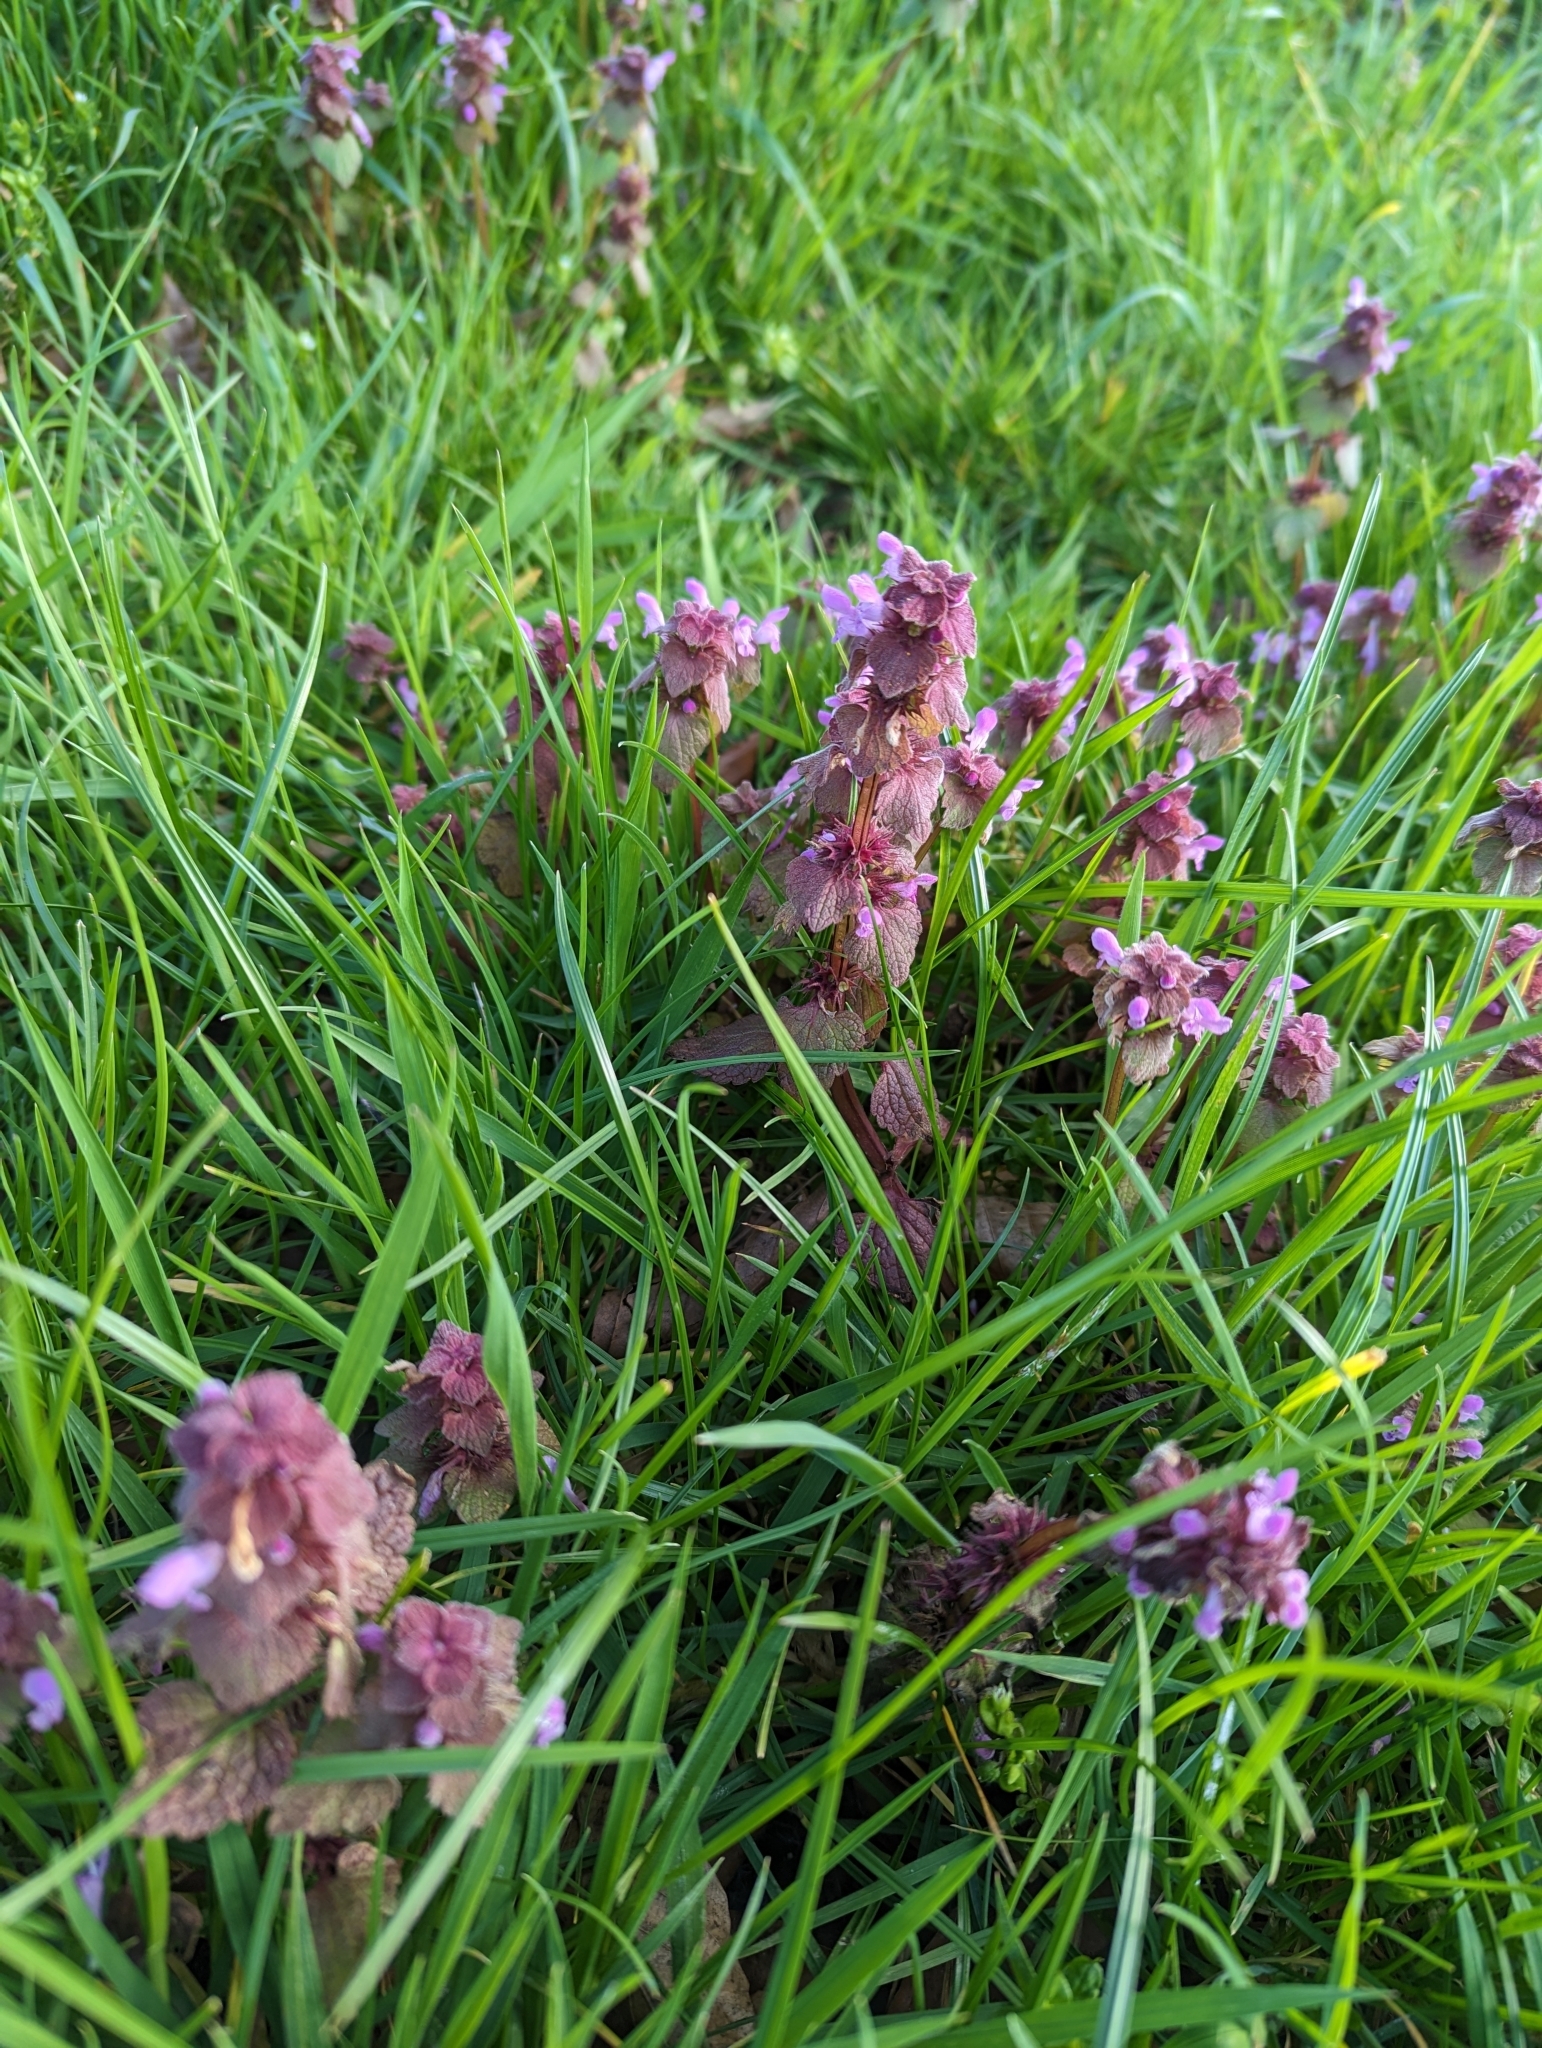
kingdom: Plantae
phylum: Tracheophyta
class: Magnoliopsida
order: Lamiales
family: Lamiaceae
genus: Lamium
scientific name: Lamium purpureum
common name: Red dead-nettle
